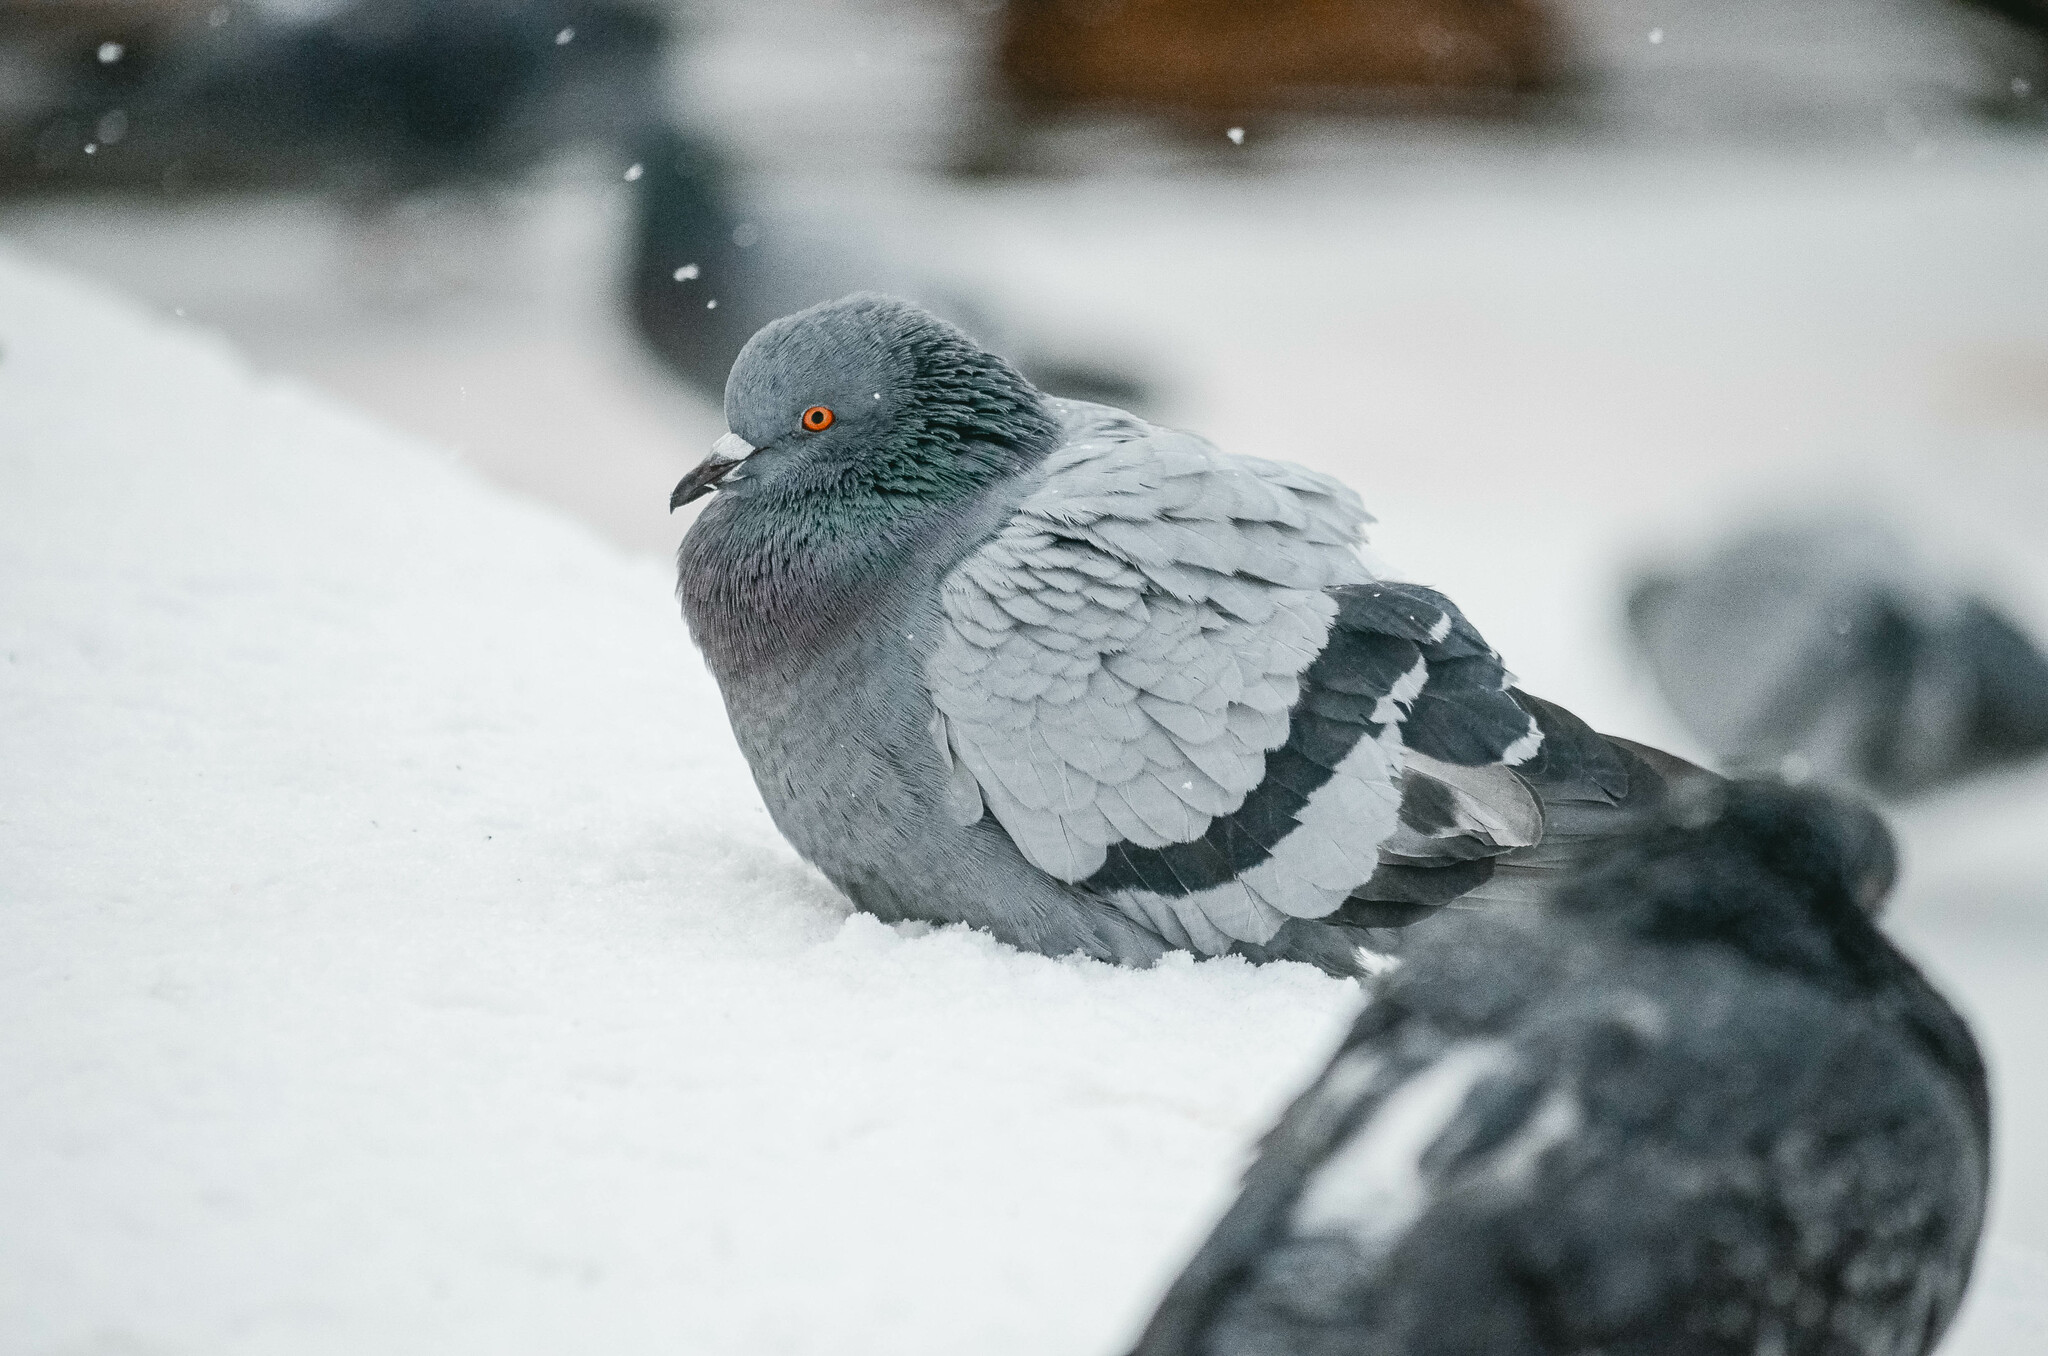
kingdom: Animalia
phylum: Chordata
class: Aves
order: Columbiformes
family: Columbidae
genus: Columba
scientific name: Columba livia
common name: Rock pigeon
